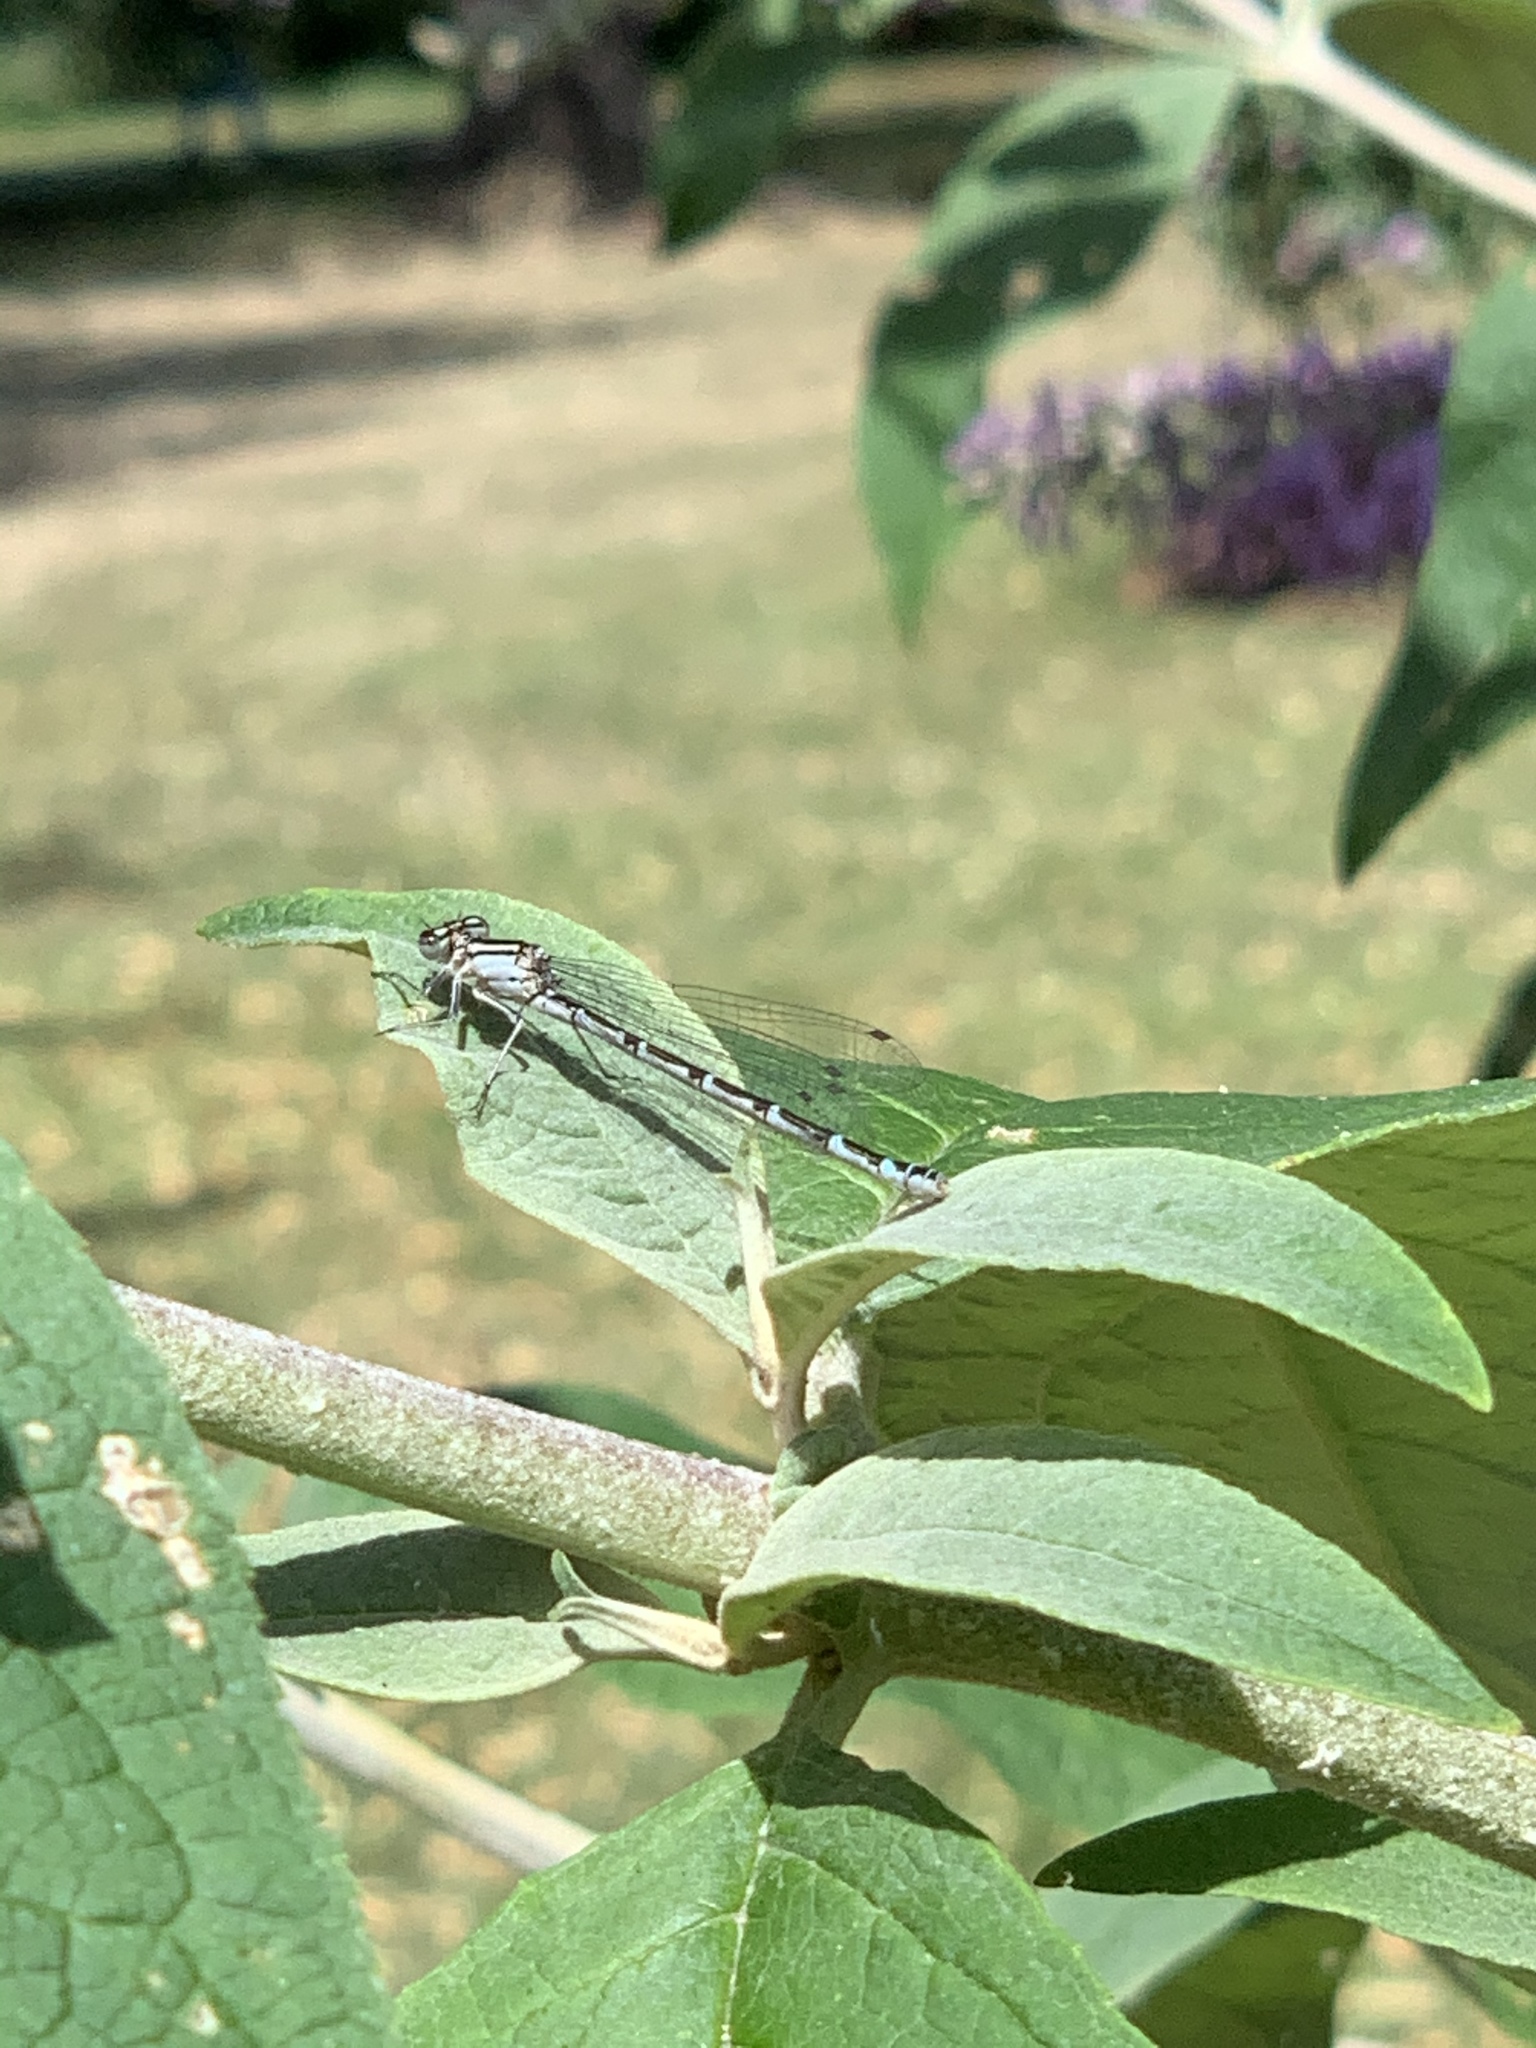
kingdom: Animalia
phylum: Arthropoda
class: Insecta
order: Odonata
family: Coenagrionidae
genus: Enallagma
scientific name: Enallagma cyathigerum
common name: Common blue damselfly
